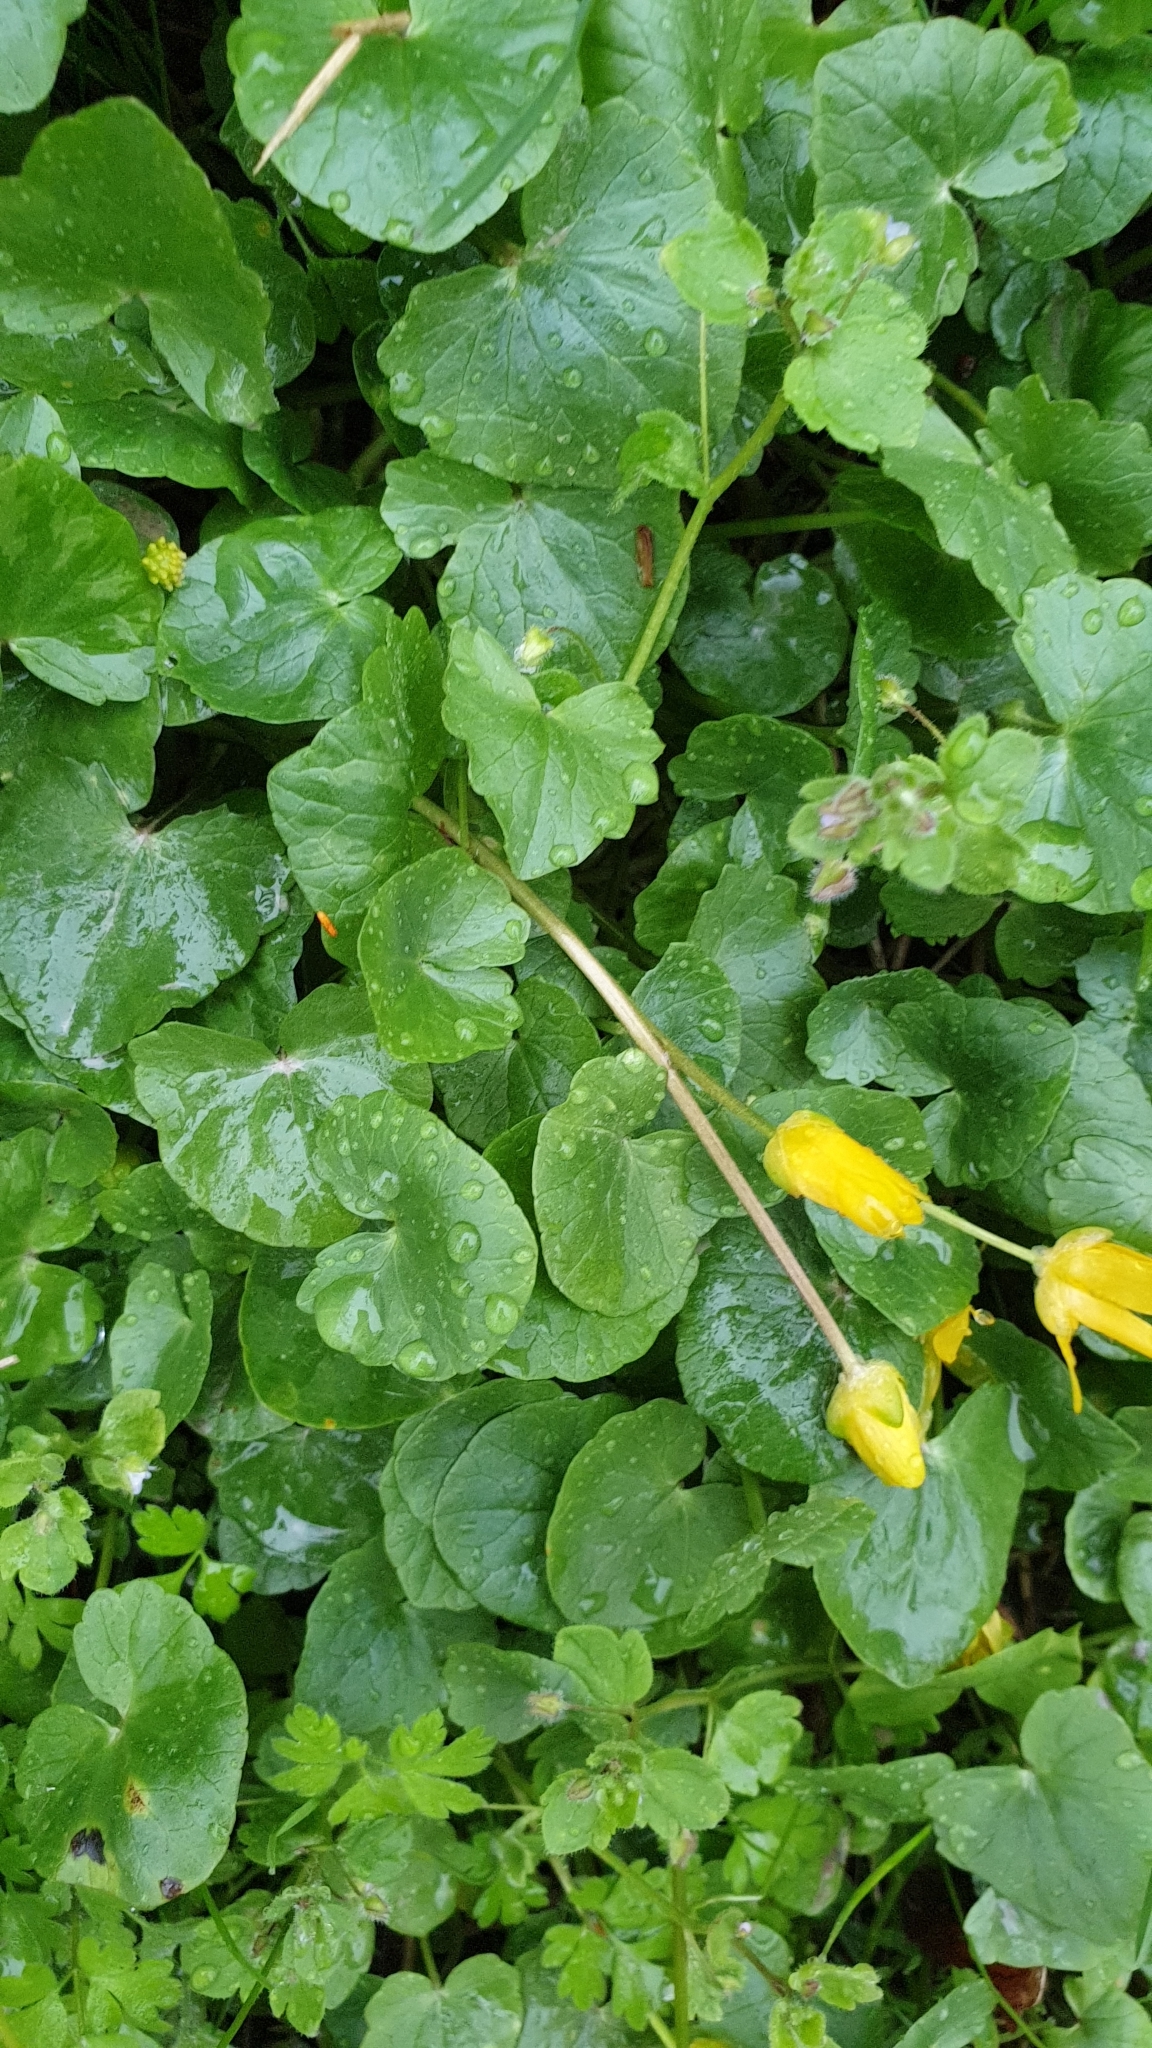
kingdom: Plantae
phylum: Tracheophyta
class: Magnoliopsida
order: Ranunculales
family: Ranunculaceae
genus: Ficaria
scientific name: Ficaria verna
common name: Lesser celandine
